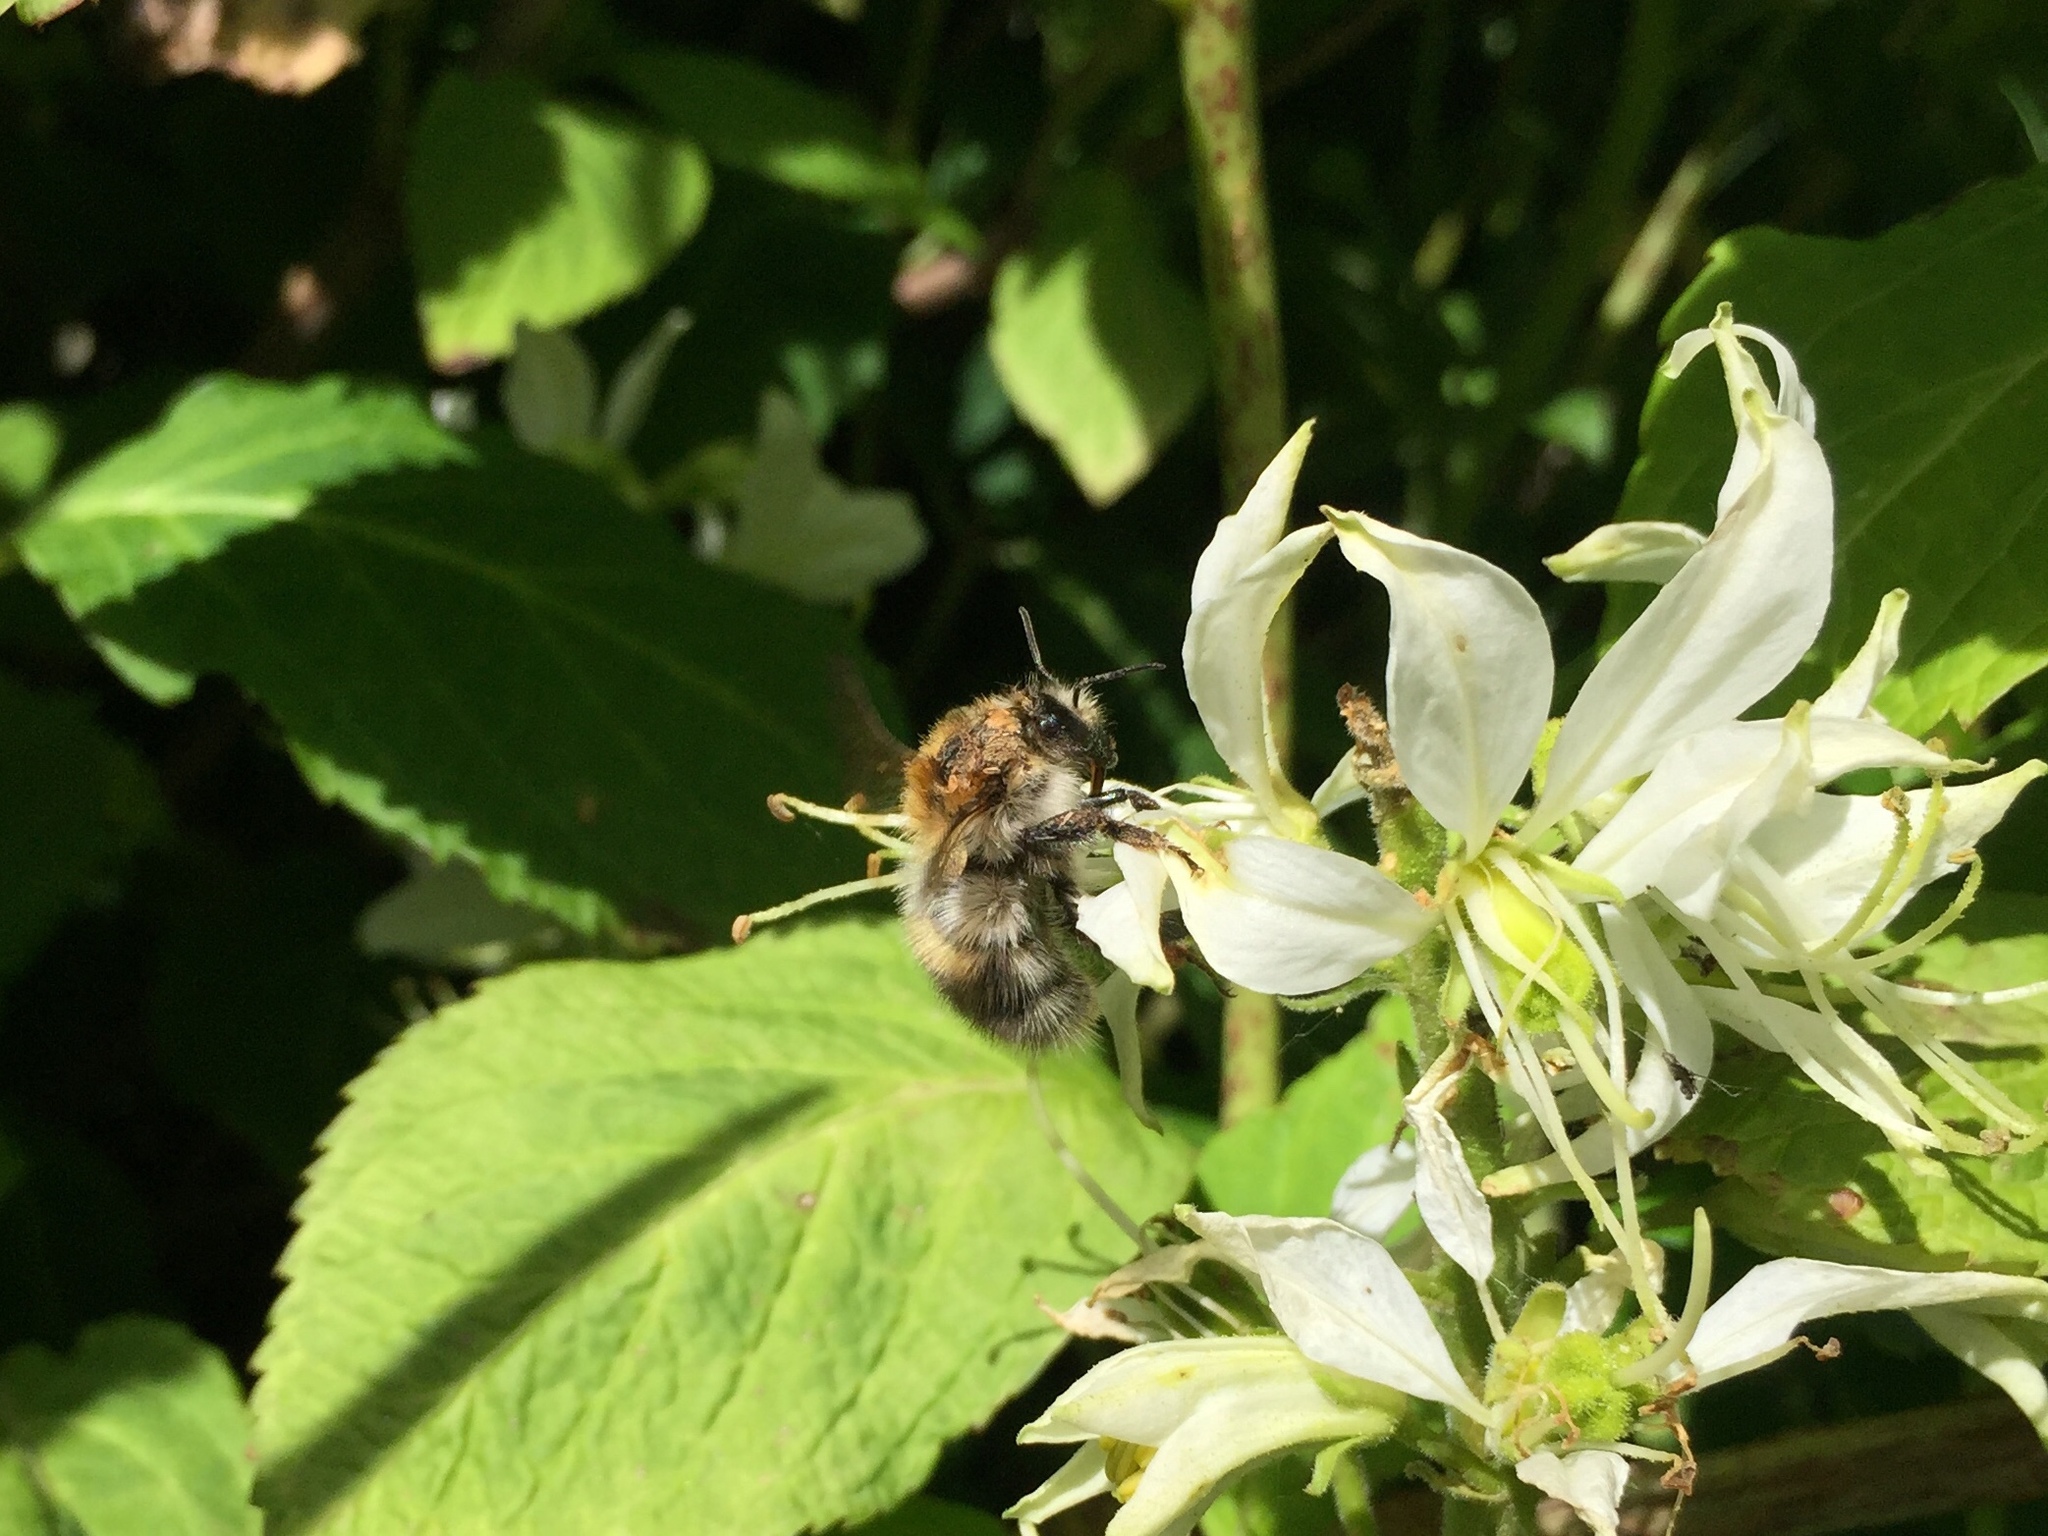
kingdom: Animalia
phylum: Arthropoda
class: Insecta
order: Hymenoptera
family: Apidae
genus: Bombus
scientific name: Bombus pascuorum
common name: Common carder bee
